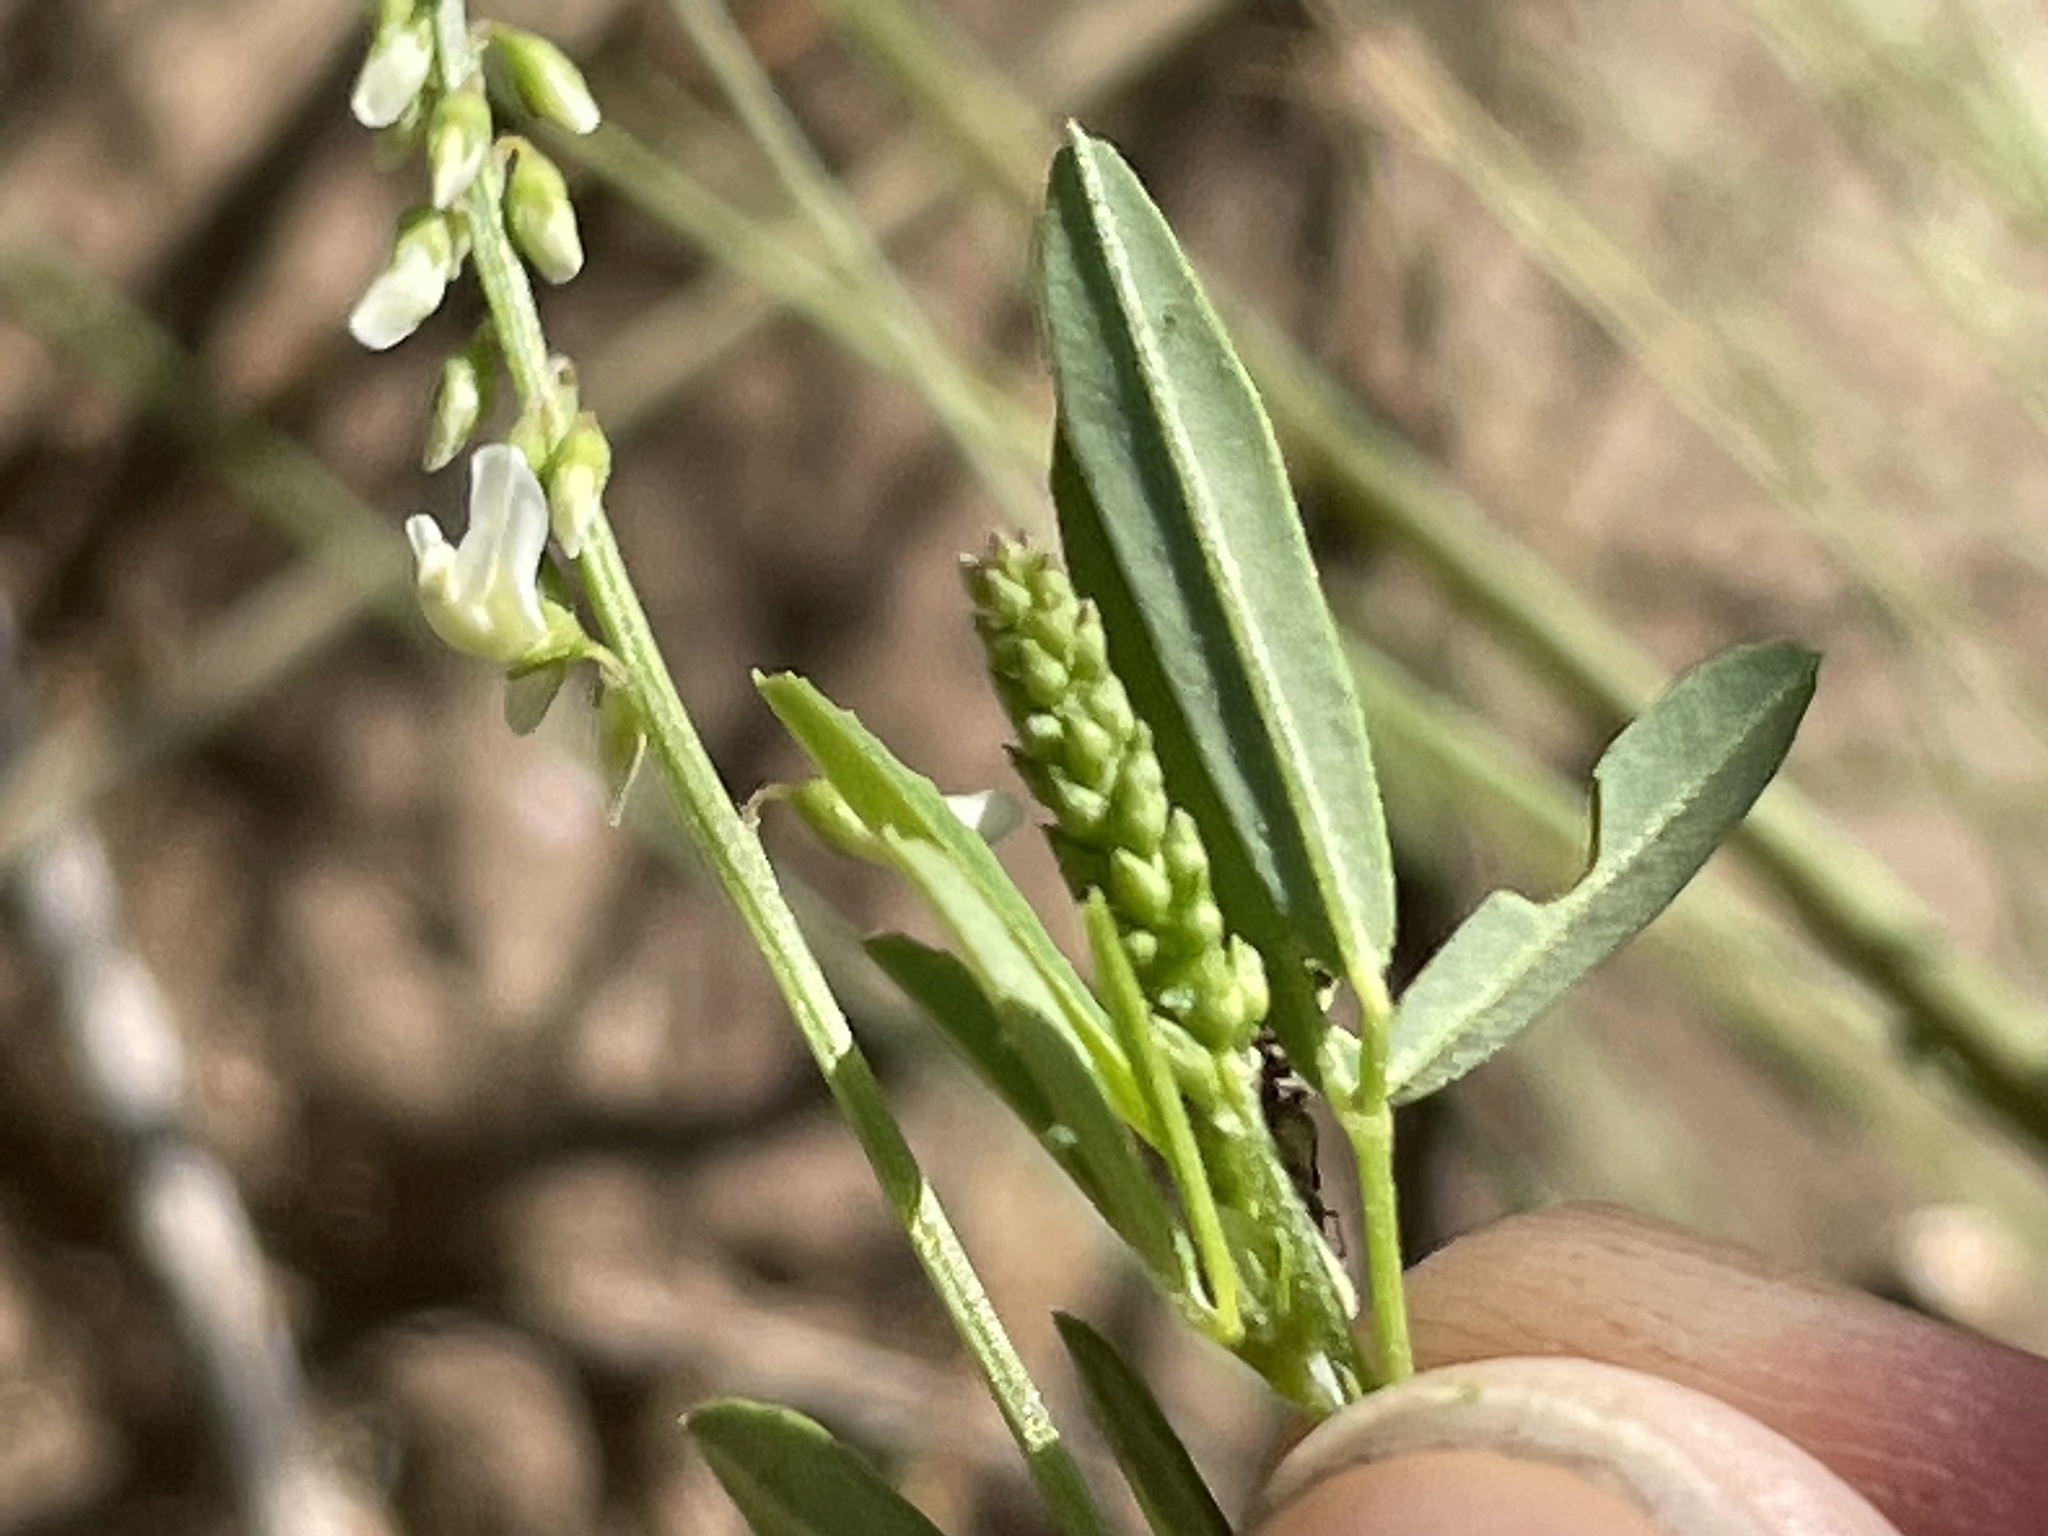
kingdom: Plantae
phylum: Tracheophyta
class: Magnoliopsida
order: Fabales
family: Fabaceae
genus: Melilotus
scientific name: Melilotus albus
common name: White melilot
